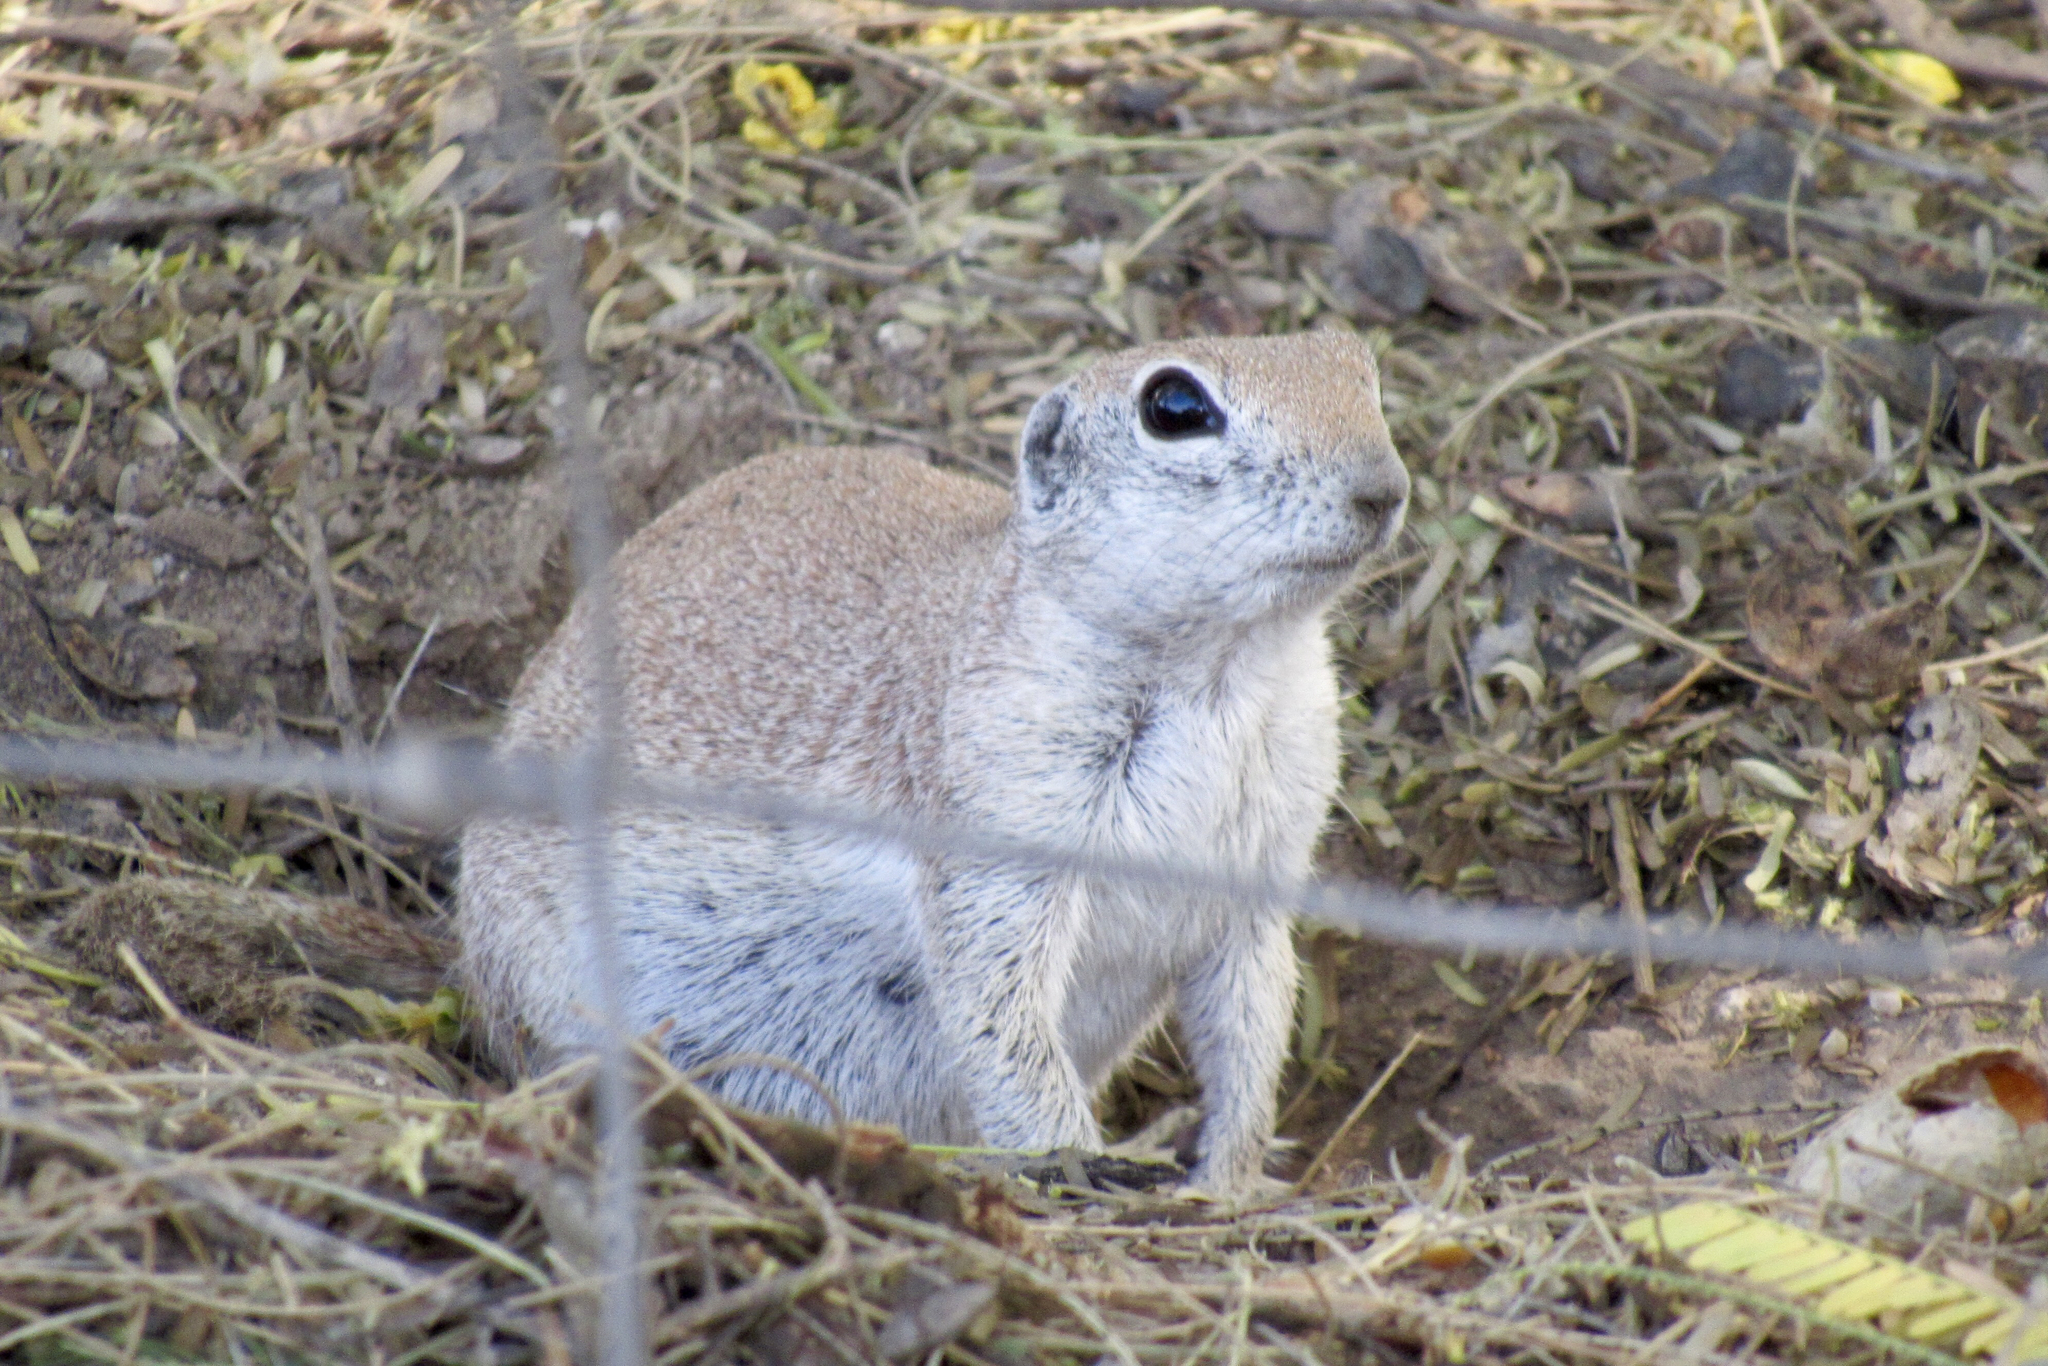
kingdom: Animalia
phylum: Chordata
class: Mammalia
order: Rodentia
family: Sciuridae
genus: Xerospermophilus
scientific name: Xerospermophilus tereticaudus
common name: Round-tailed ground squirrel
